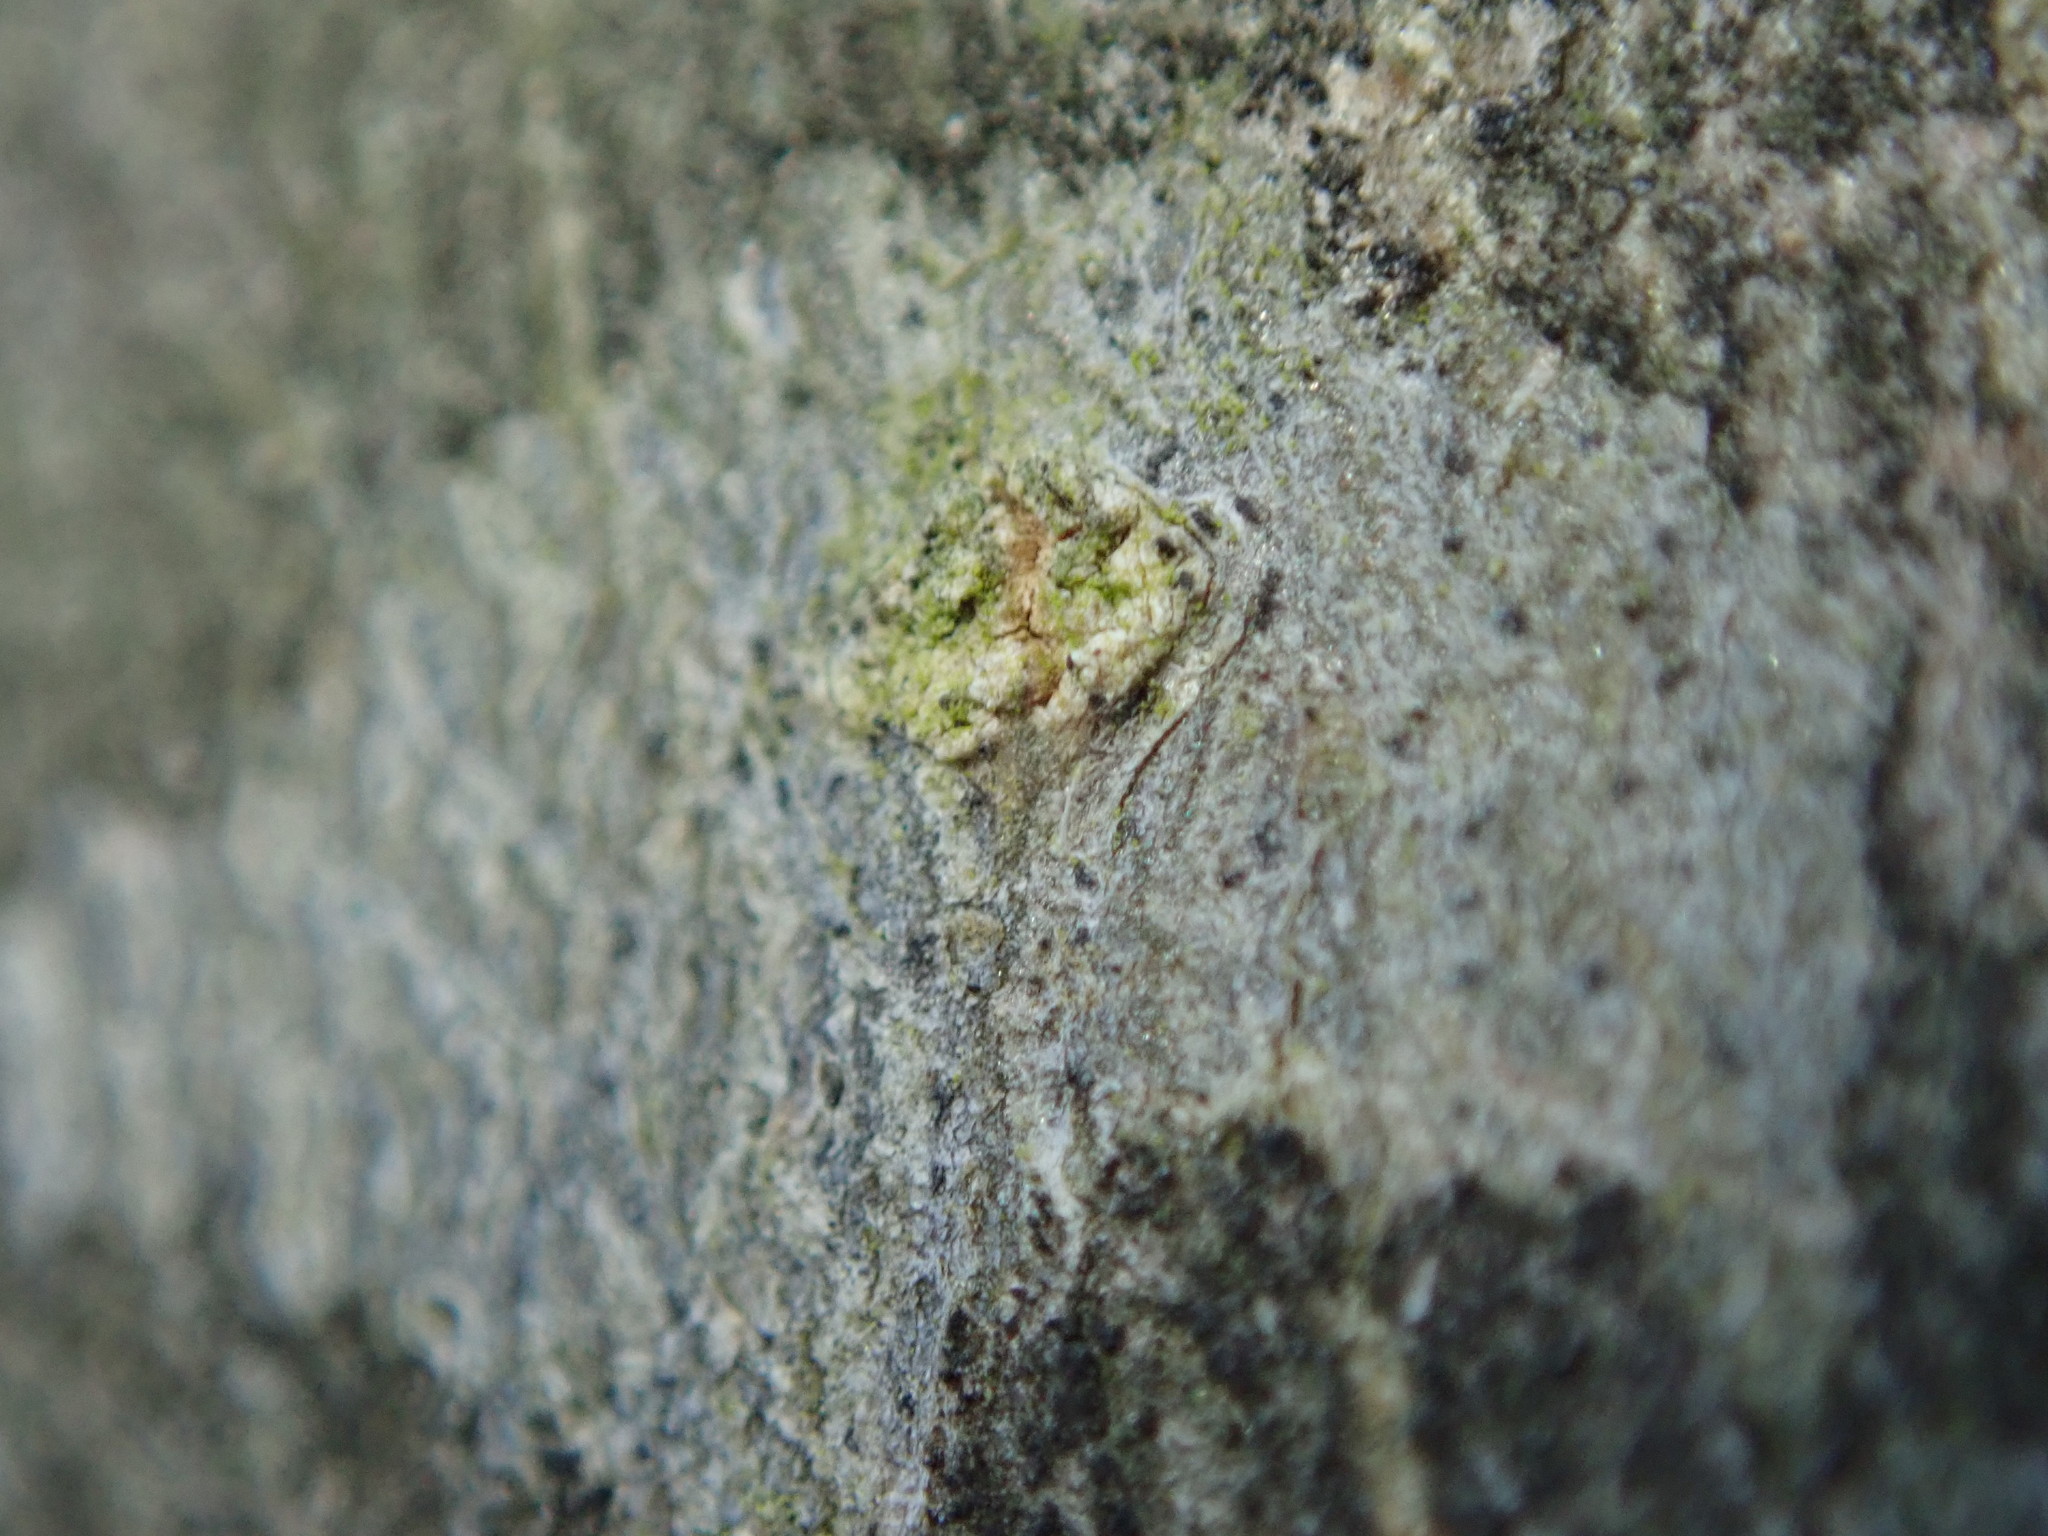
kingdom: Fungi
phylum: Ascomycota
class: Arthoniomycetes
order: Arthoniales
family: Arthoniaceae
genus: Arthonia
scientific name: Arthonia susa
